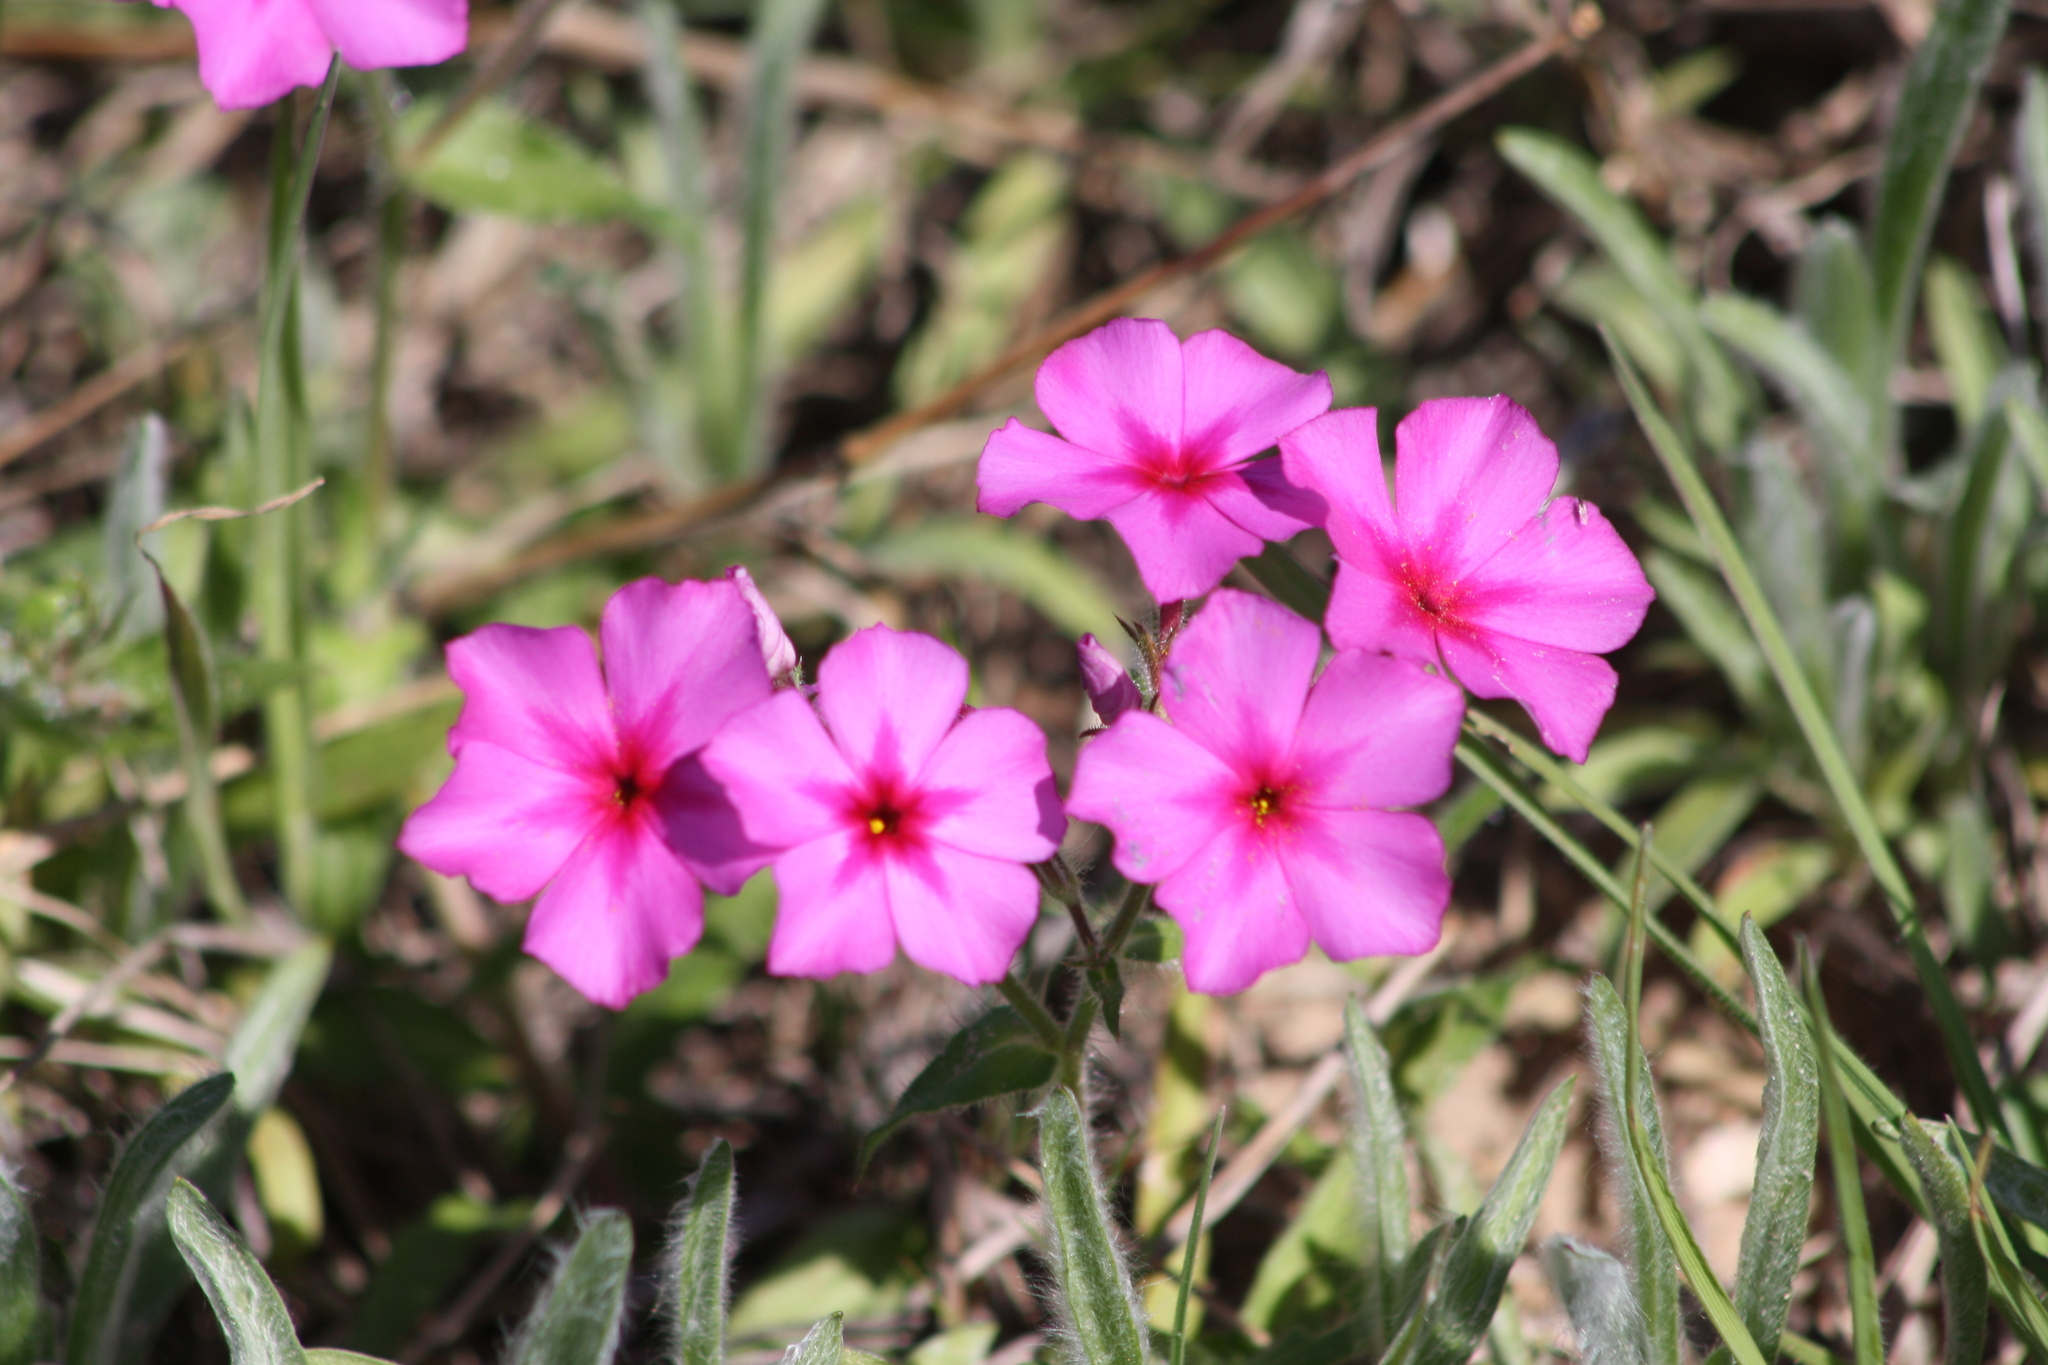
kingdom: Plantae
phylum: Tracheophyta
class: Magnoliopsida
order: Ericales
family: Polemoniaceae
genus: Phlox
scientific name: Phlox drummondii
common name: Drummond's phlox
